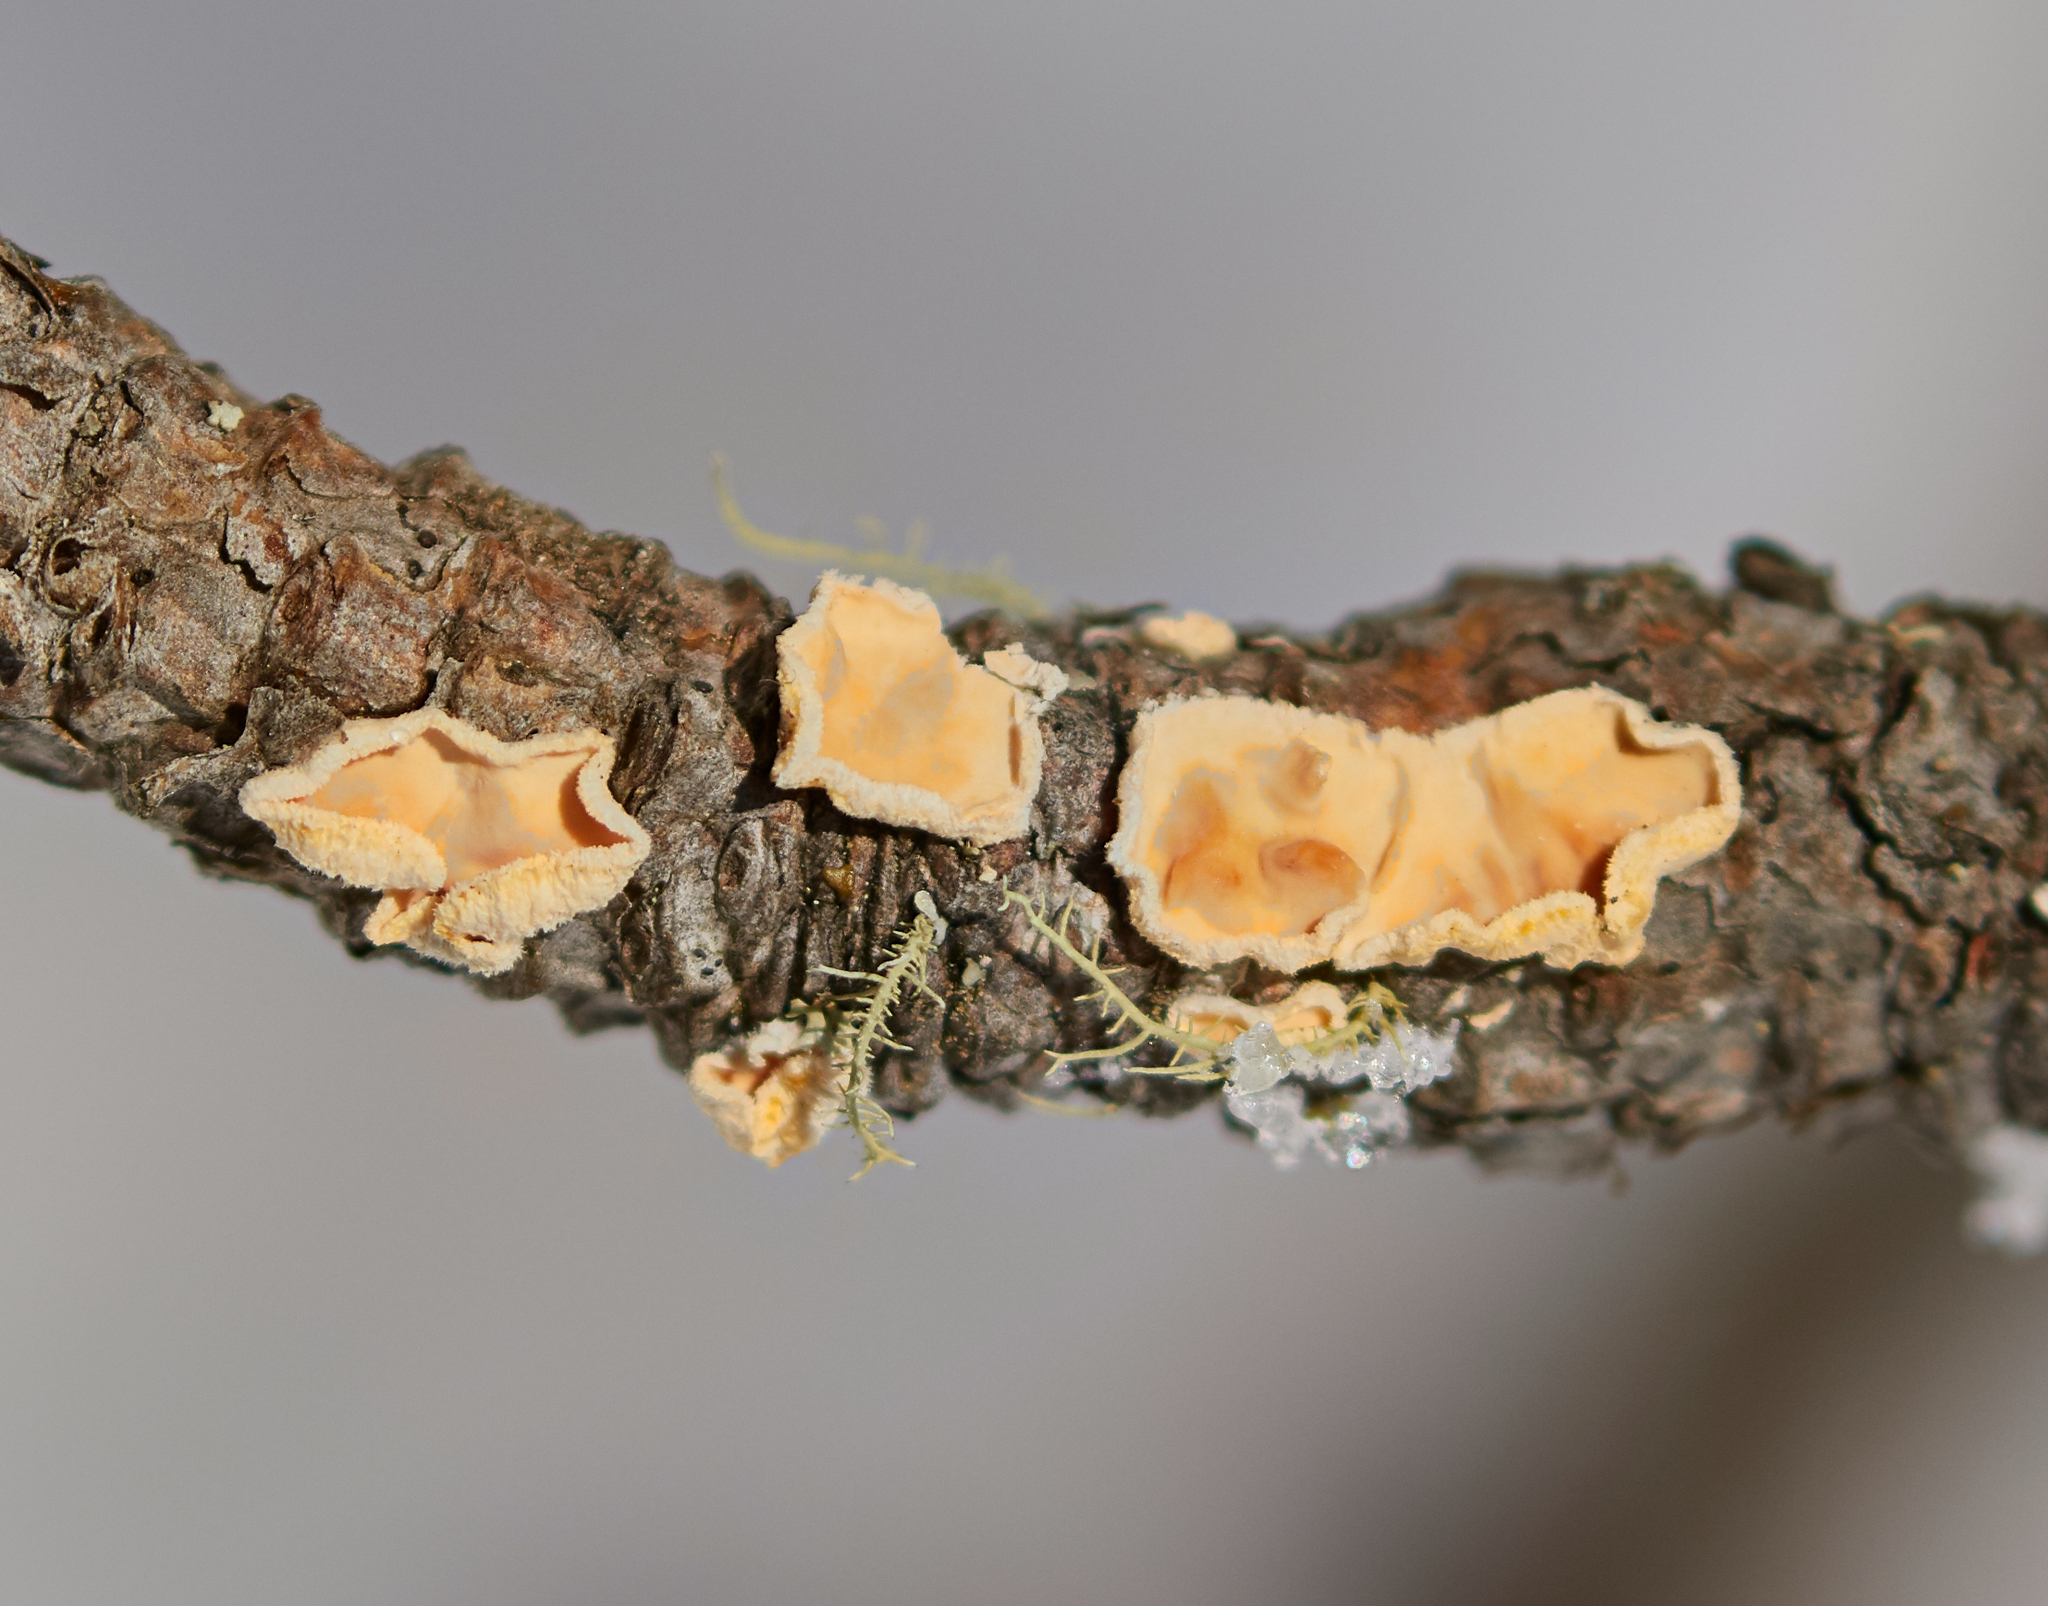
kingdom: Fungi
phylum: Basidiomycota
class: Agaricomycetes
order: Russulales
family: Stereaceae
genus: Aleurodiscus
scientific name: Aleurodiscus amorphus
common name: Orange discus
